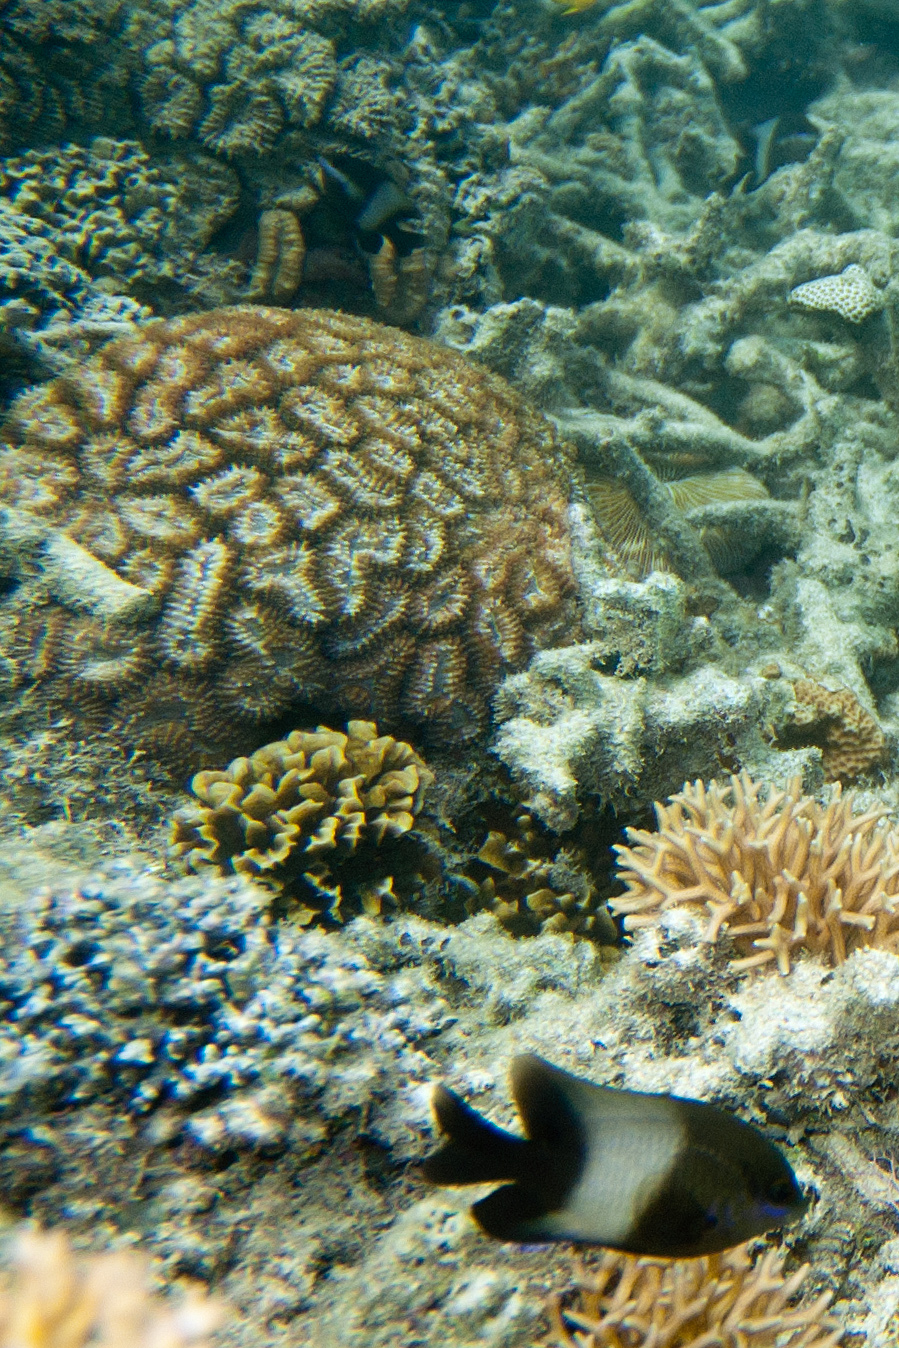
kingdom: Animalia
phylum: Chordata
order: Perciformes
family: Pomacentridae
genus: Stegastes
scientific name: Stegastes nigricans
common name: Dusky gregory
